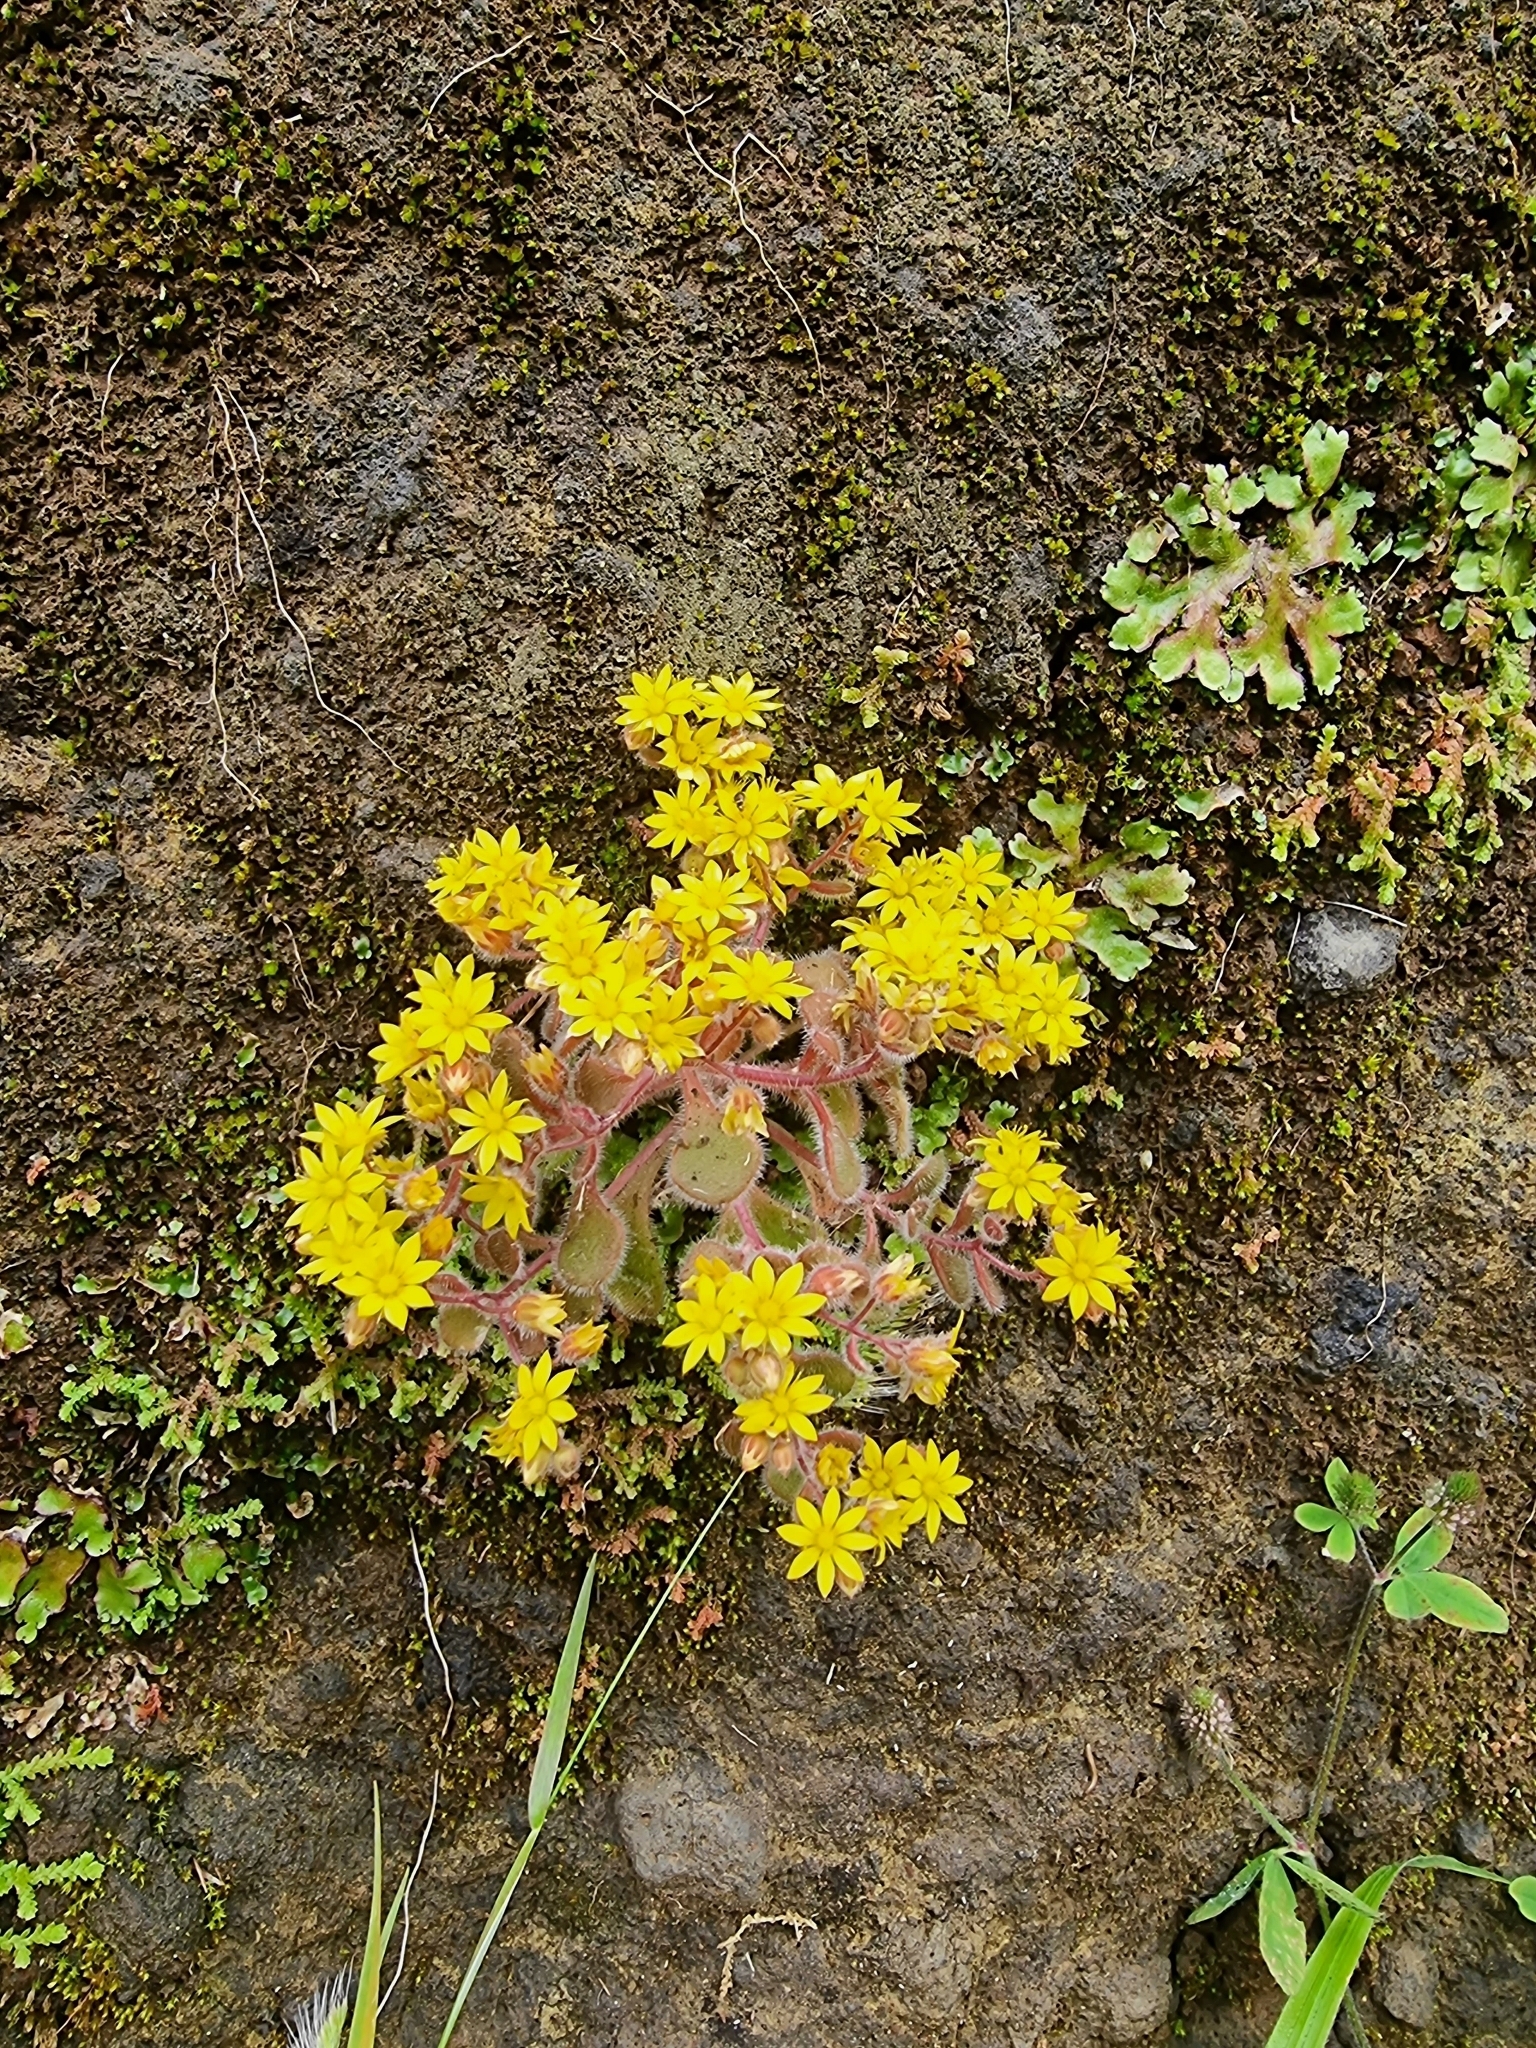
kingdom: Plantae
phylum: Tracheophyta
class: Magnoliopsida
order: Saxifragales
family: Crassulaceae
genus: Aichryson
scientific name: Aichryson villosum
